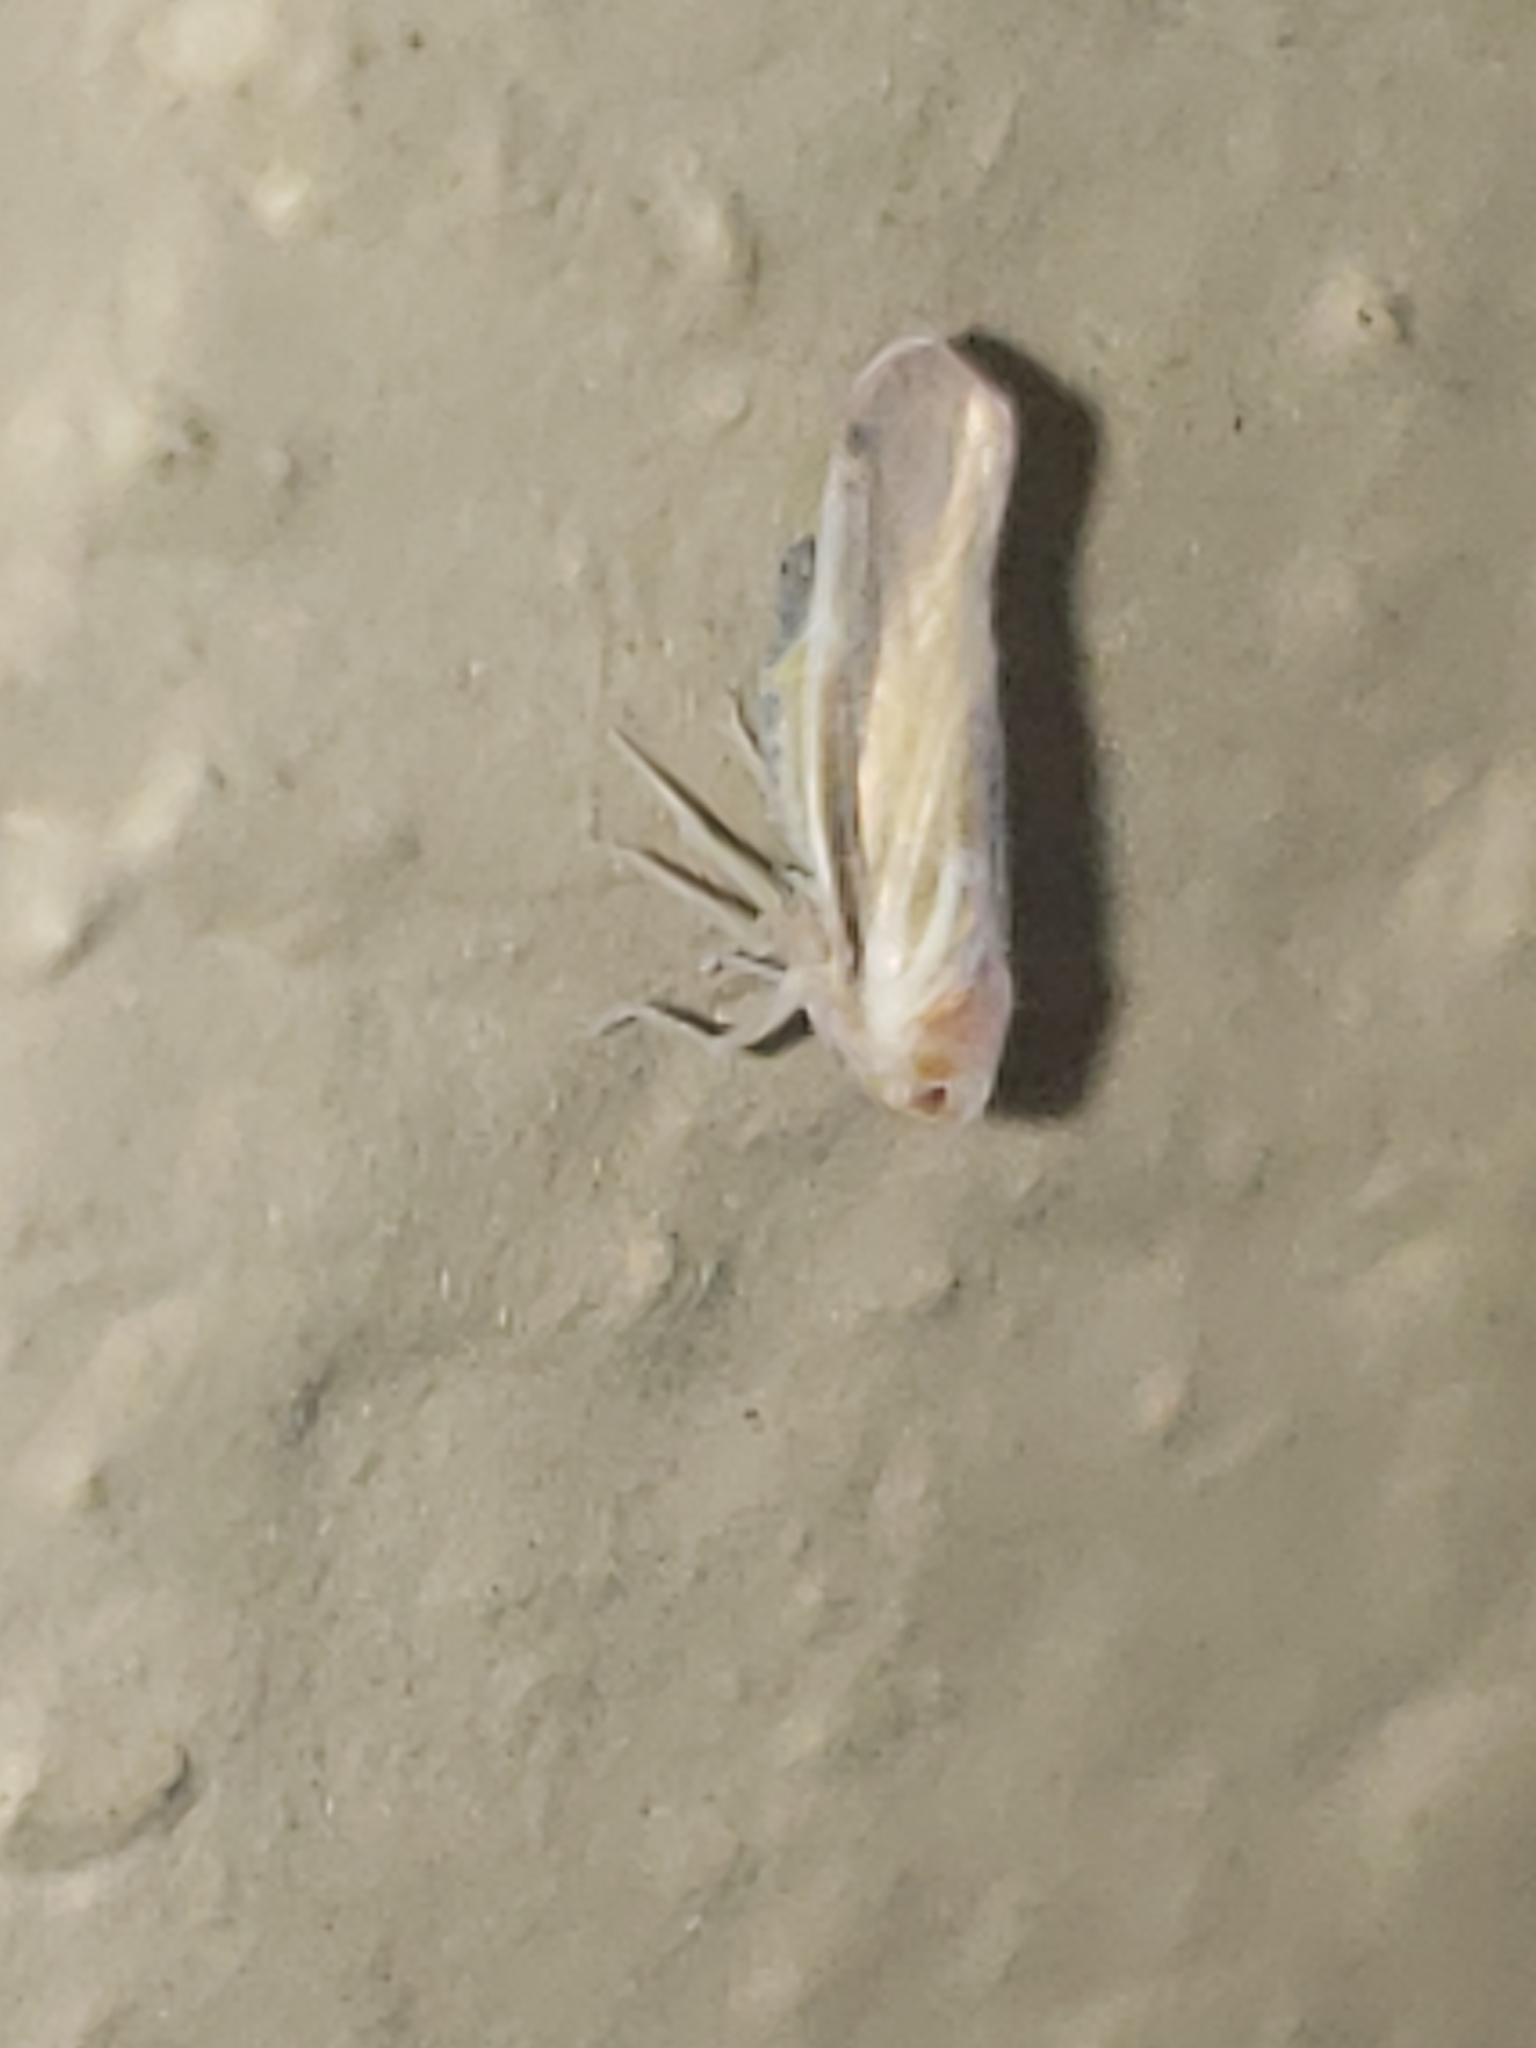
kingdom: Animalia
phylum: Arthropoda
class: Insecta
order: Hemiptera
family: Derbidae
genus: Omolicna
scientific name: Omolicna uhleri
